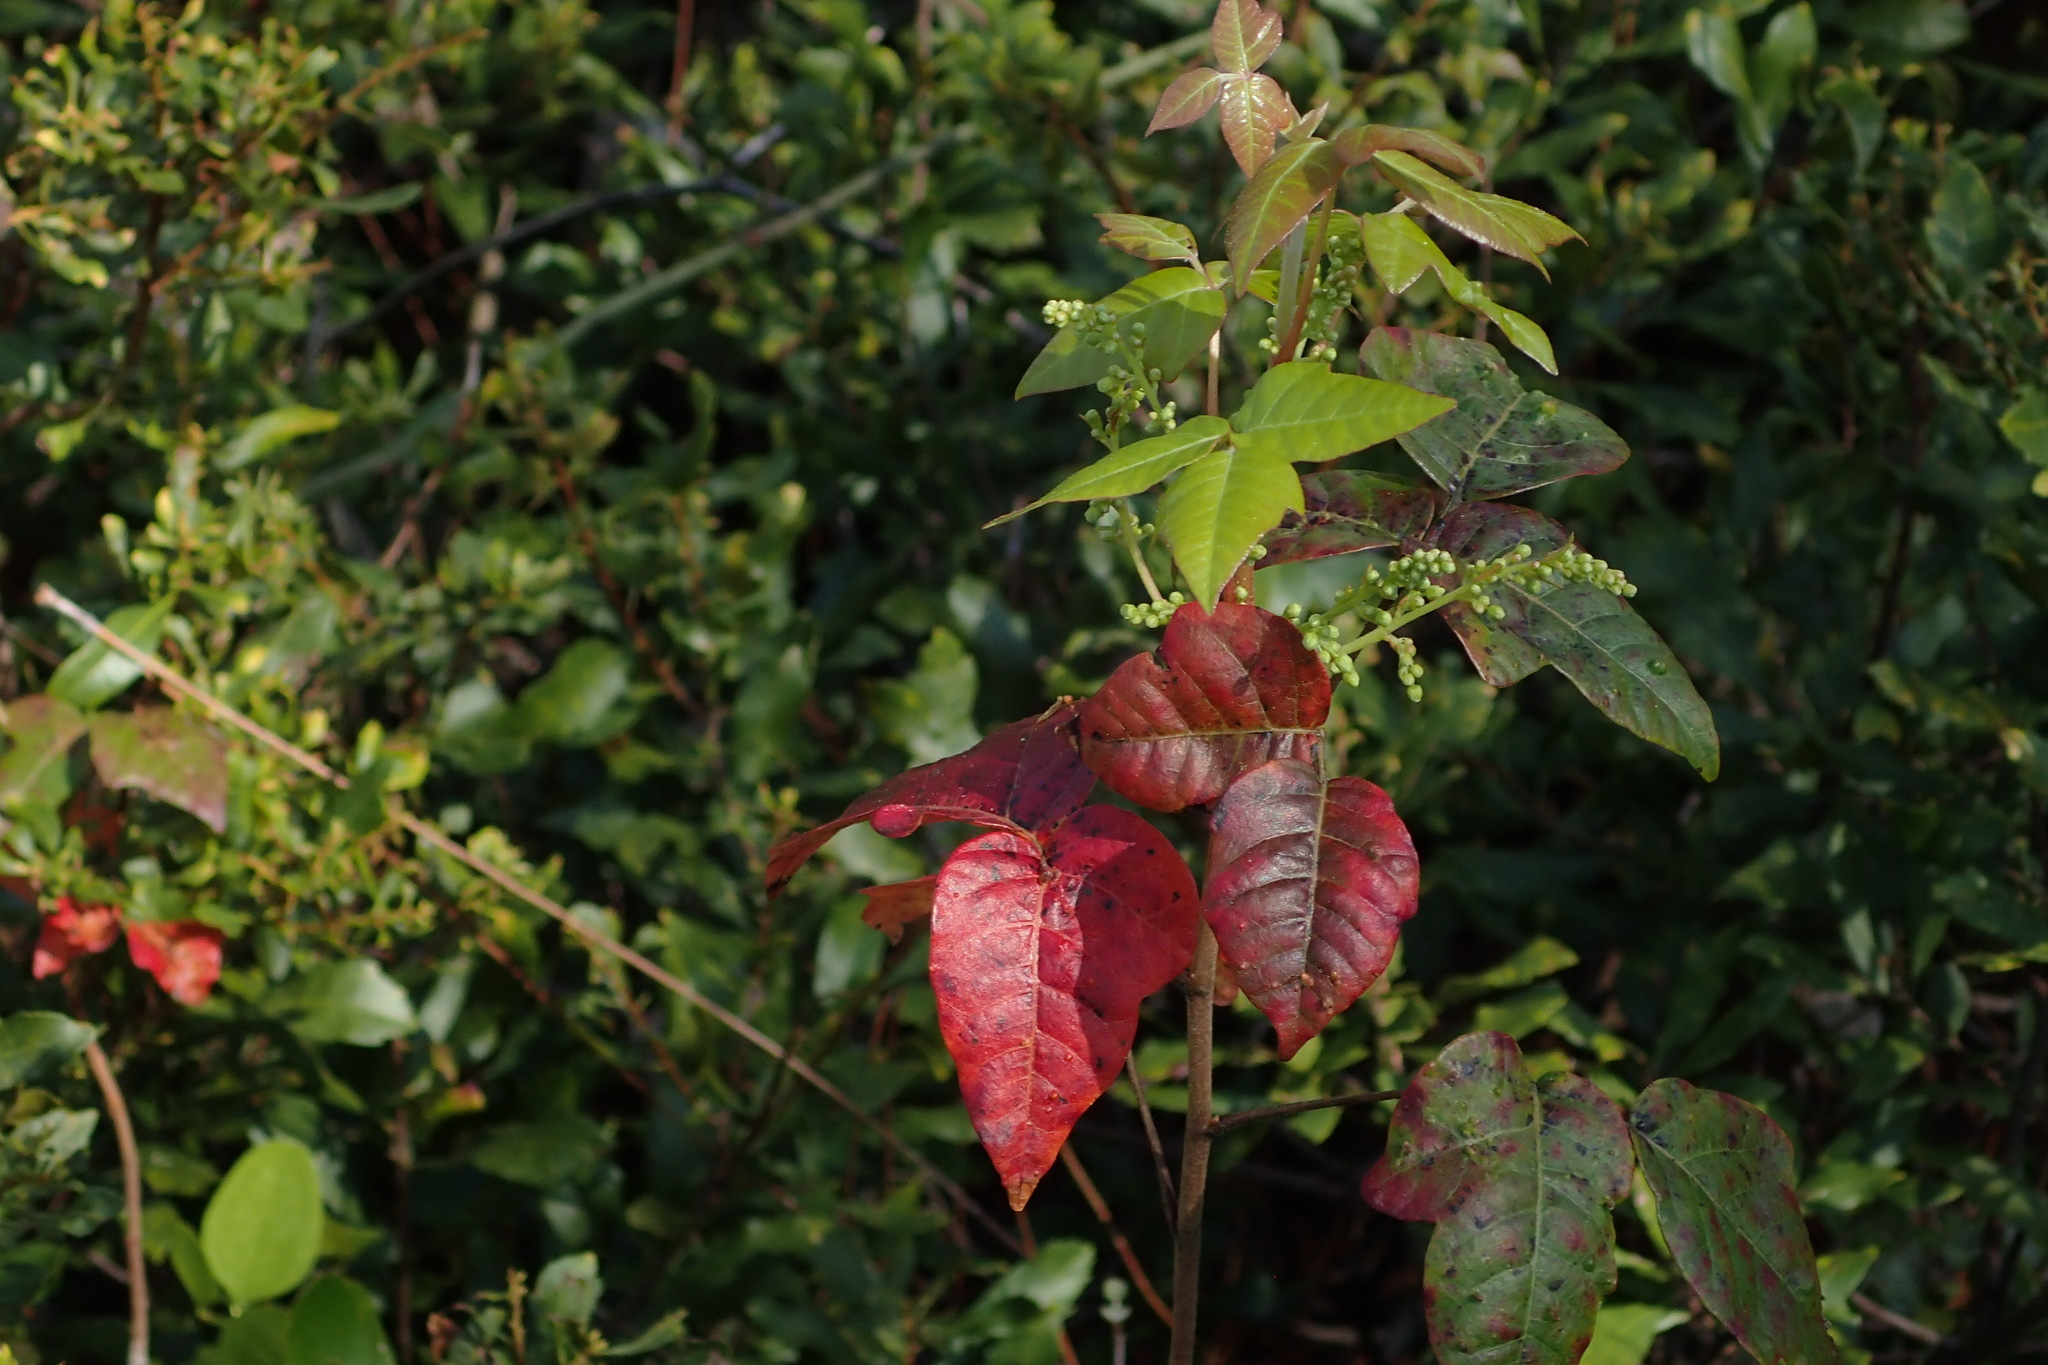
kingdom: Plantae
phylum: Tracheophyta
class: Magnoliopsida
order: Sapindales
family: Anacardiaceae
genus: Toxicodendron
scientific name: Toxicodendron radicans
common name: Poison ivy
